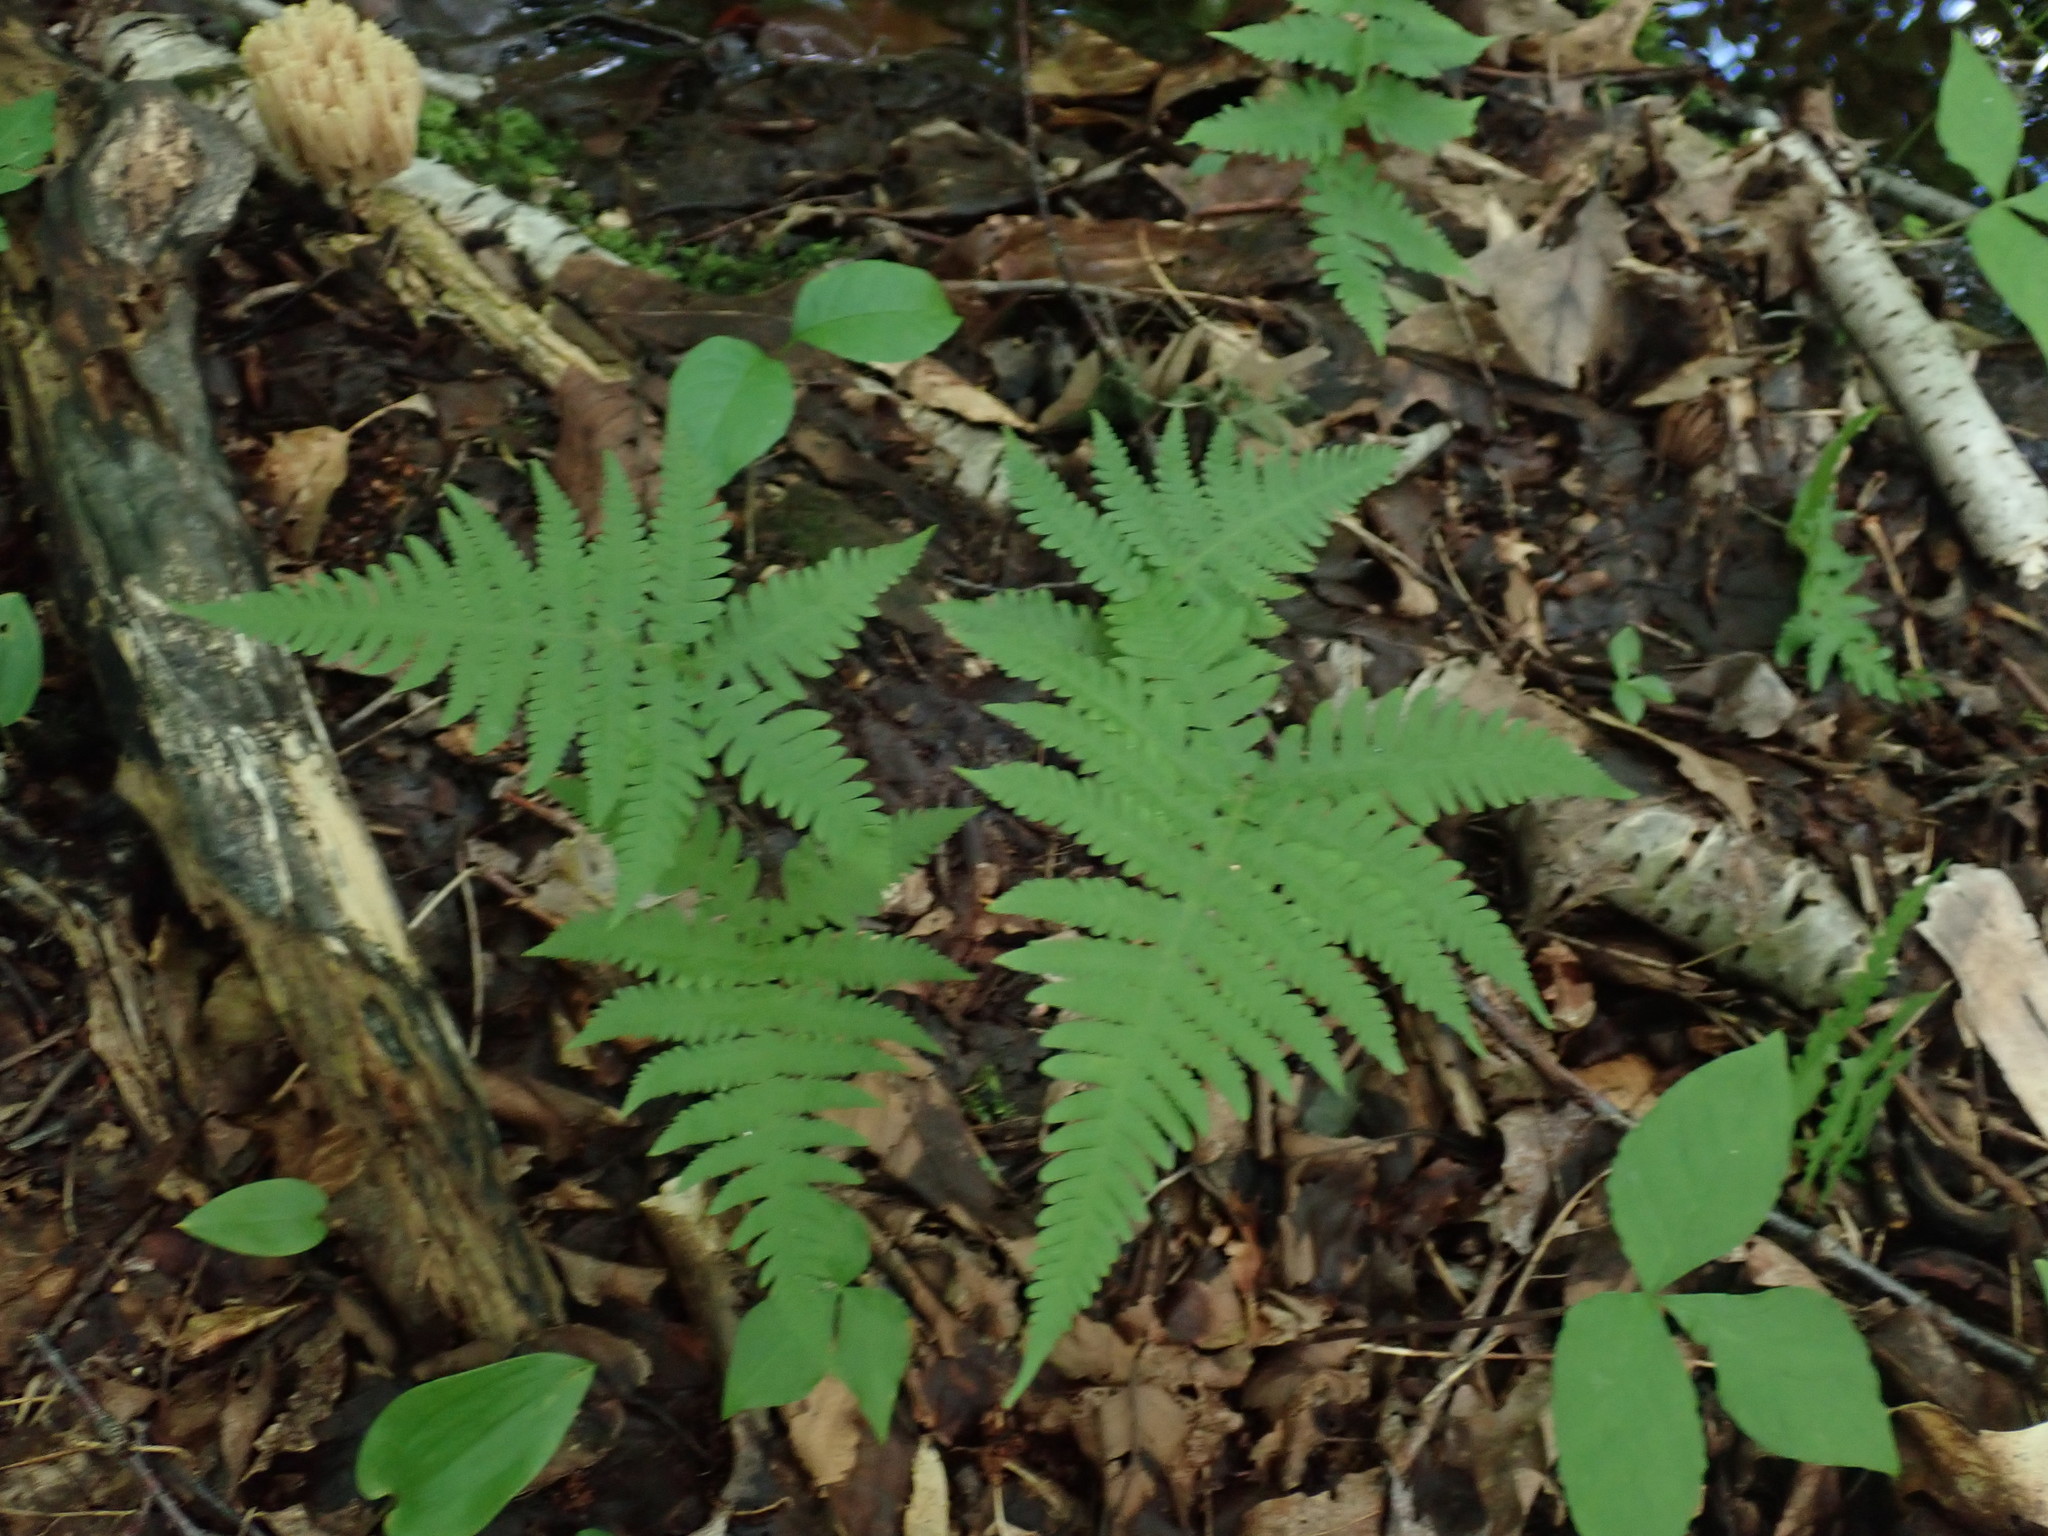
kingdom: Plantae
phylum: Tracheophyta
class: Polypodiopsida
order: Polypodiales
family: Thelypteridaceae
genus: Phegopteris
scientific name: Phegopteris connectilis
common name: Beech fern
